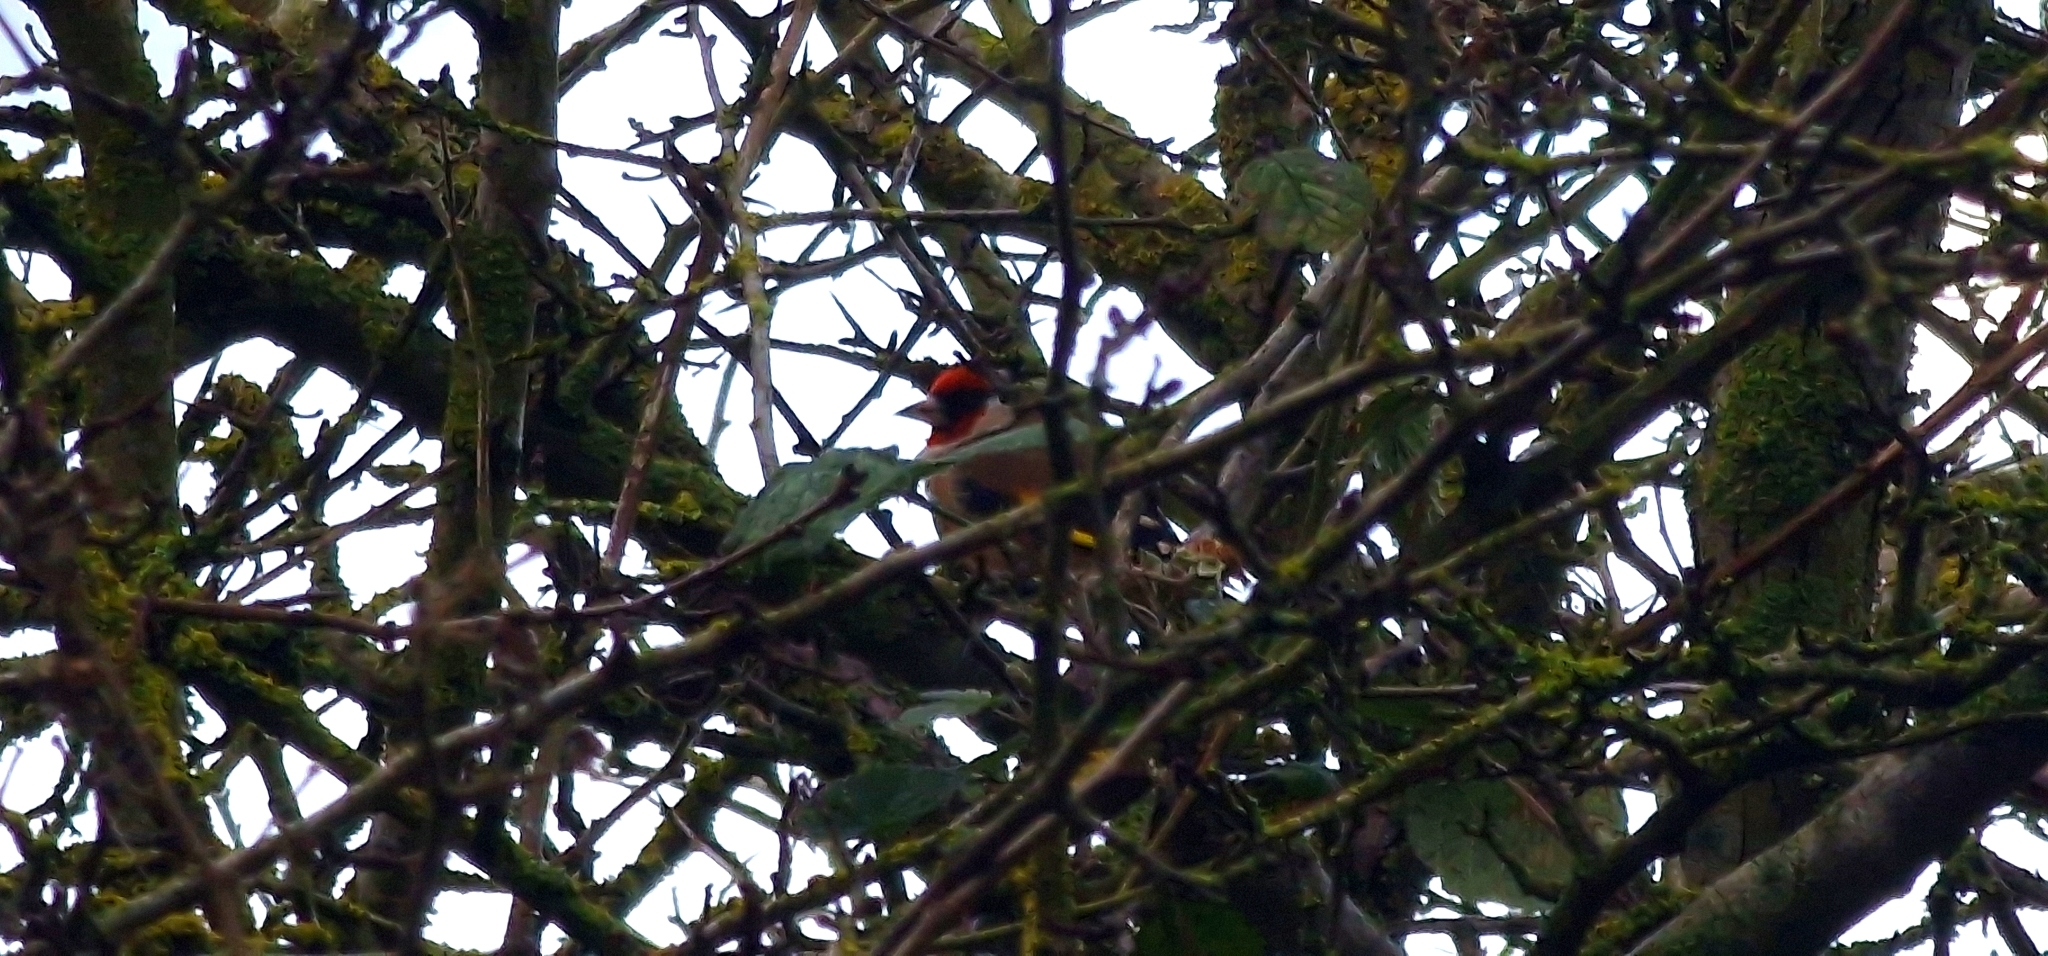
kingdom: Animalia
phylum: Chordata
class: Aves
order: Passeriformes
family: Fringillidae
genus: Carduelis
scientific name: Carduelis carduelis
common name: European goldfinch
